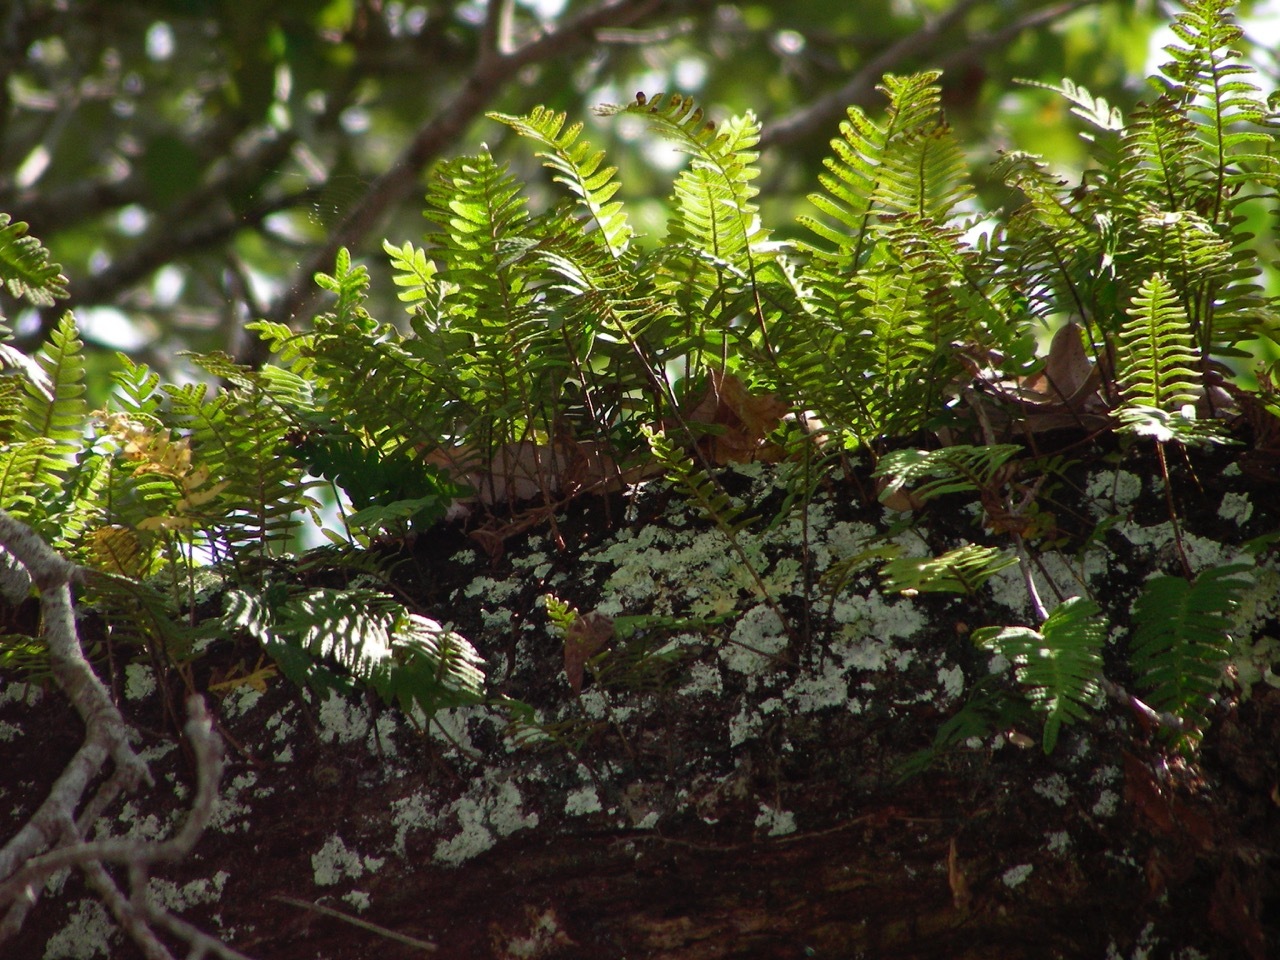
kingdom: Plantae
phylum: Tracheophyta
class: Polypodiopsida
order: Polypodiales
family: Polypodiaceae
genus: Pleopeltis
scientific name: Pleopeltis michauxiana
